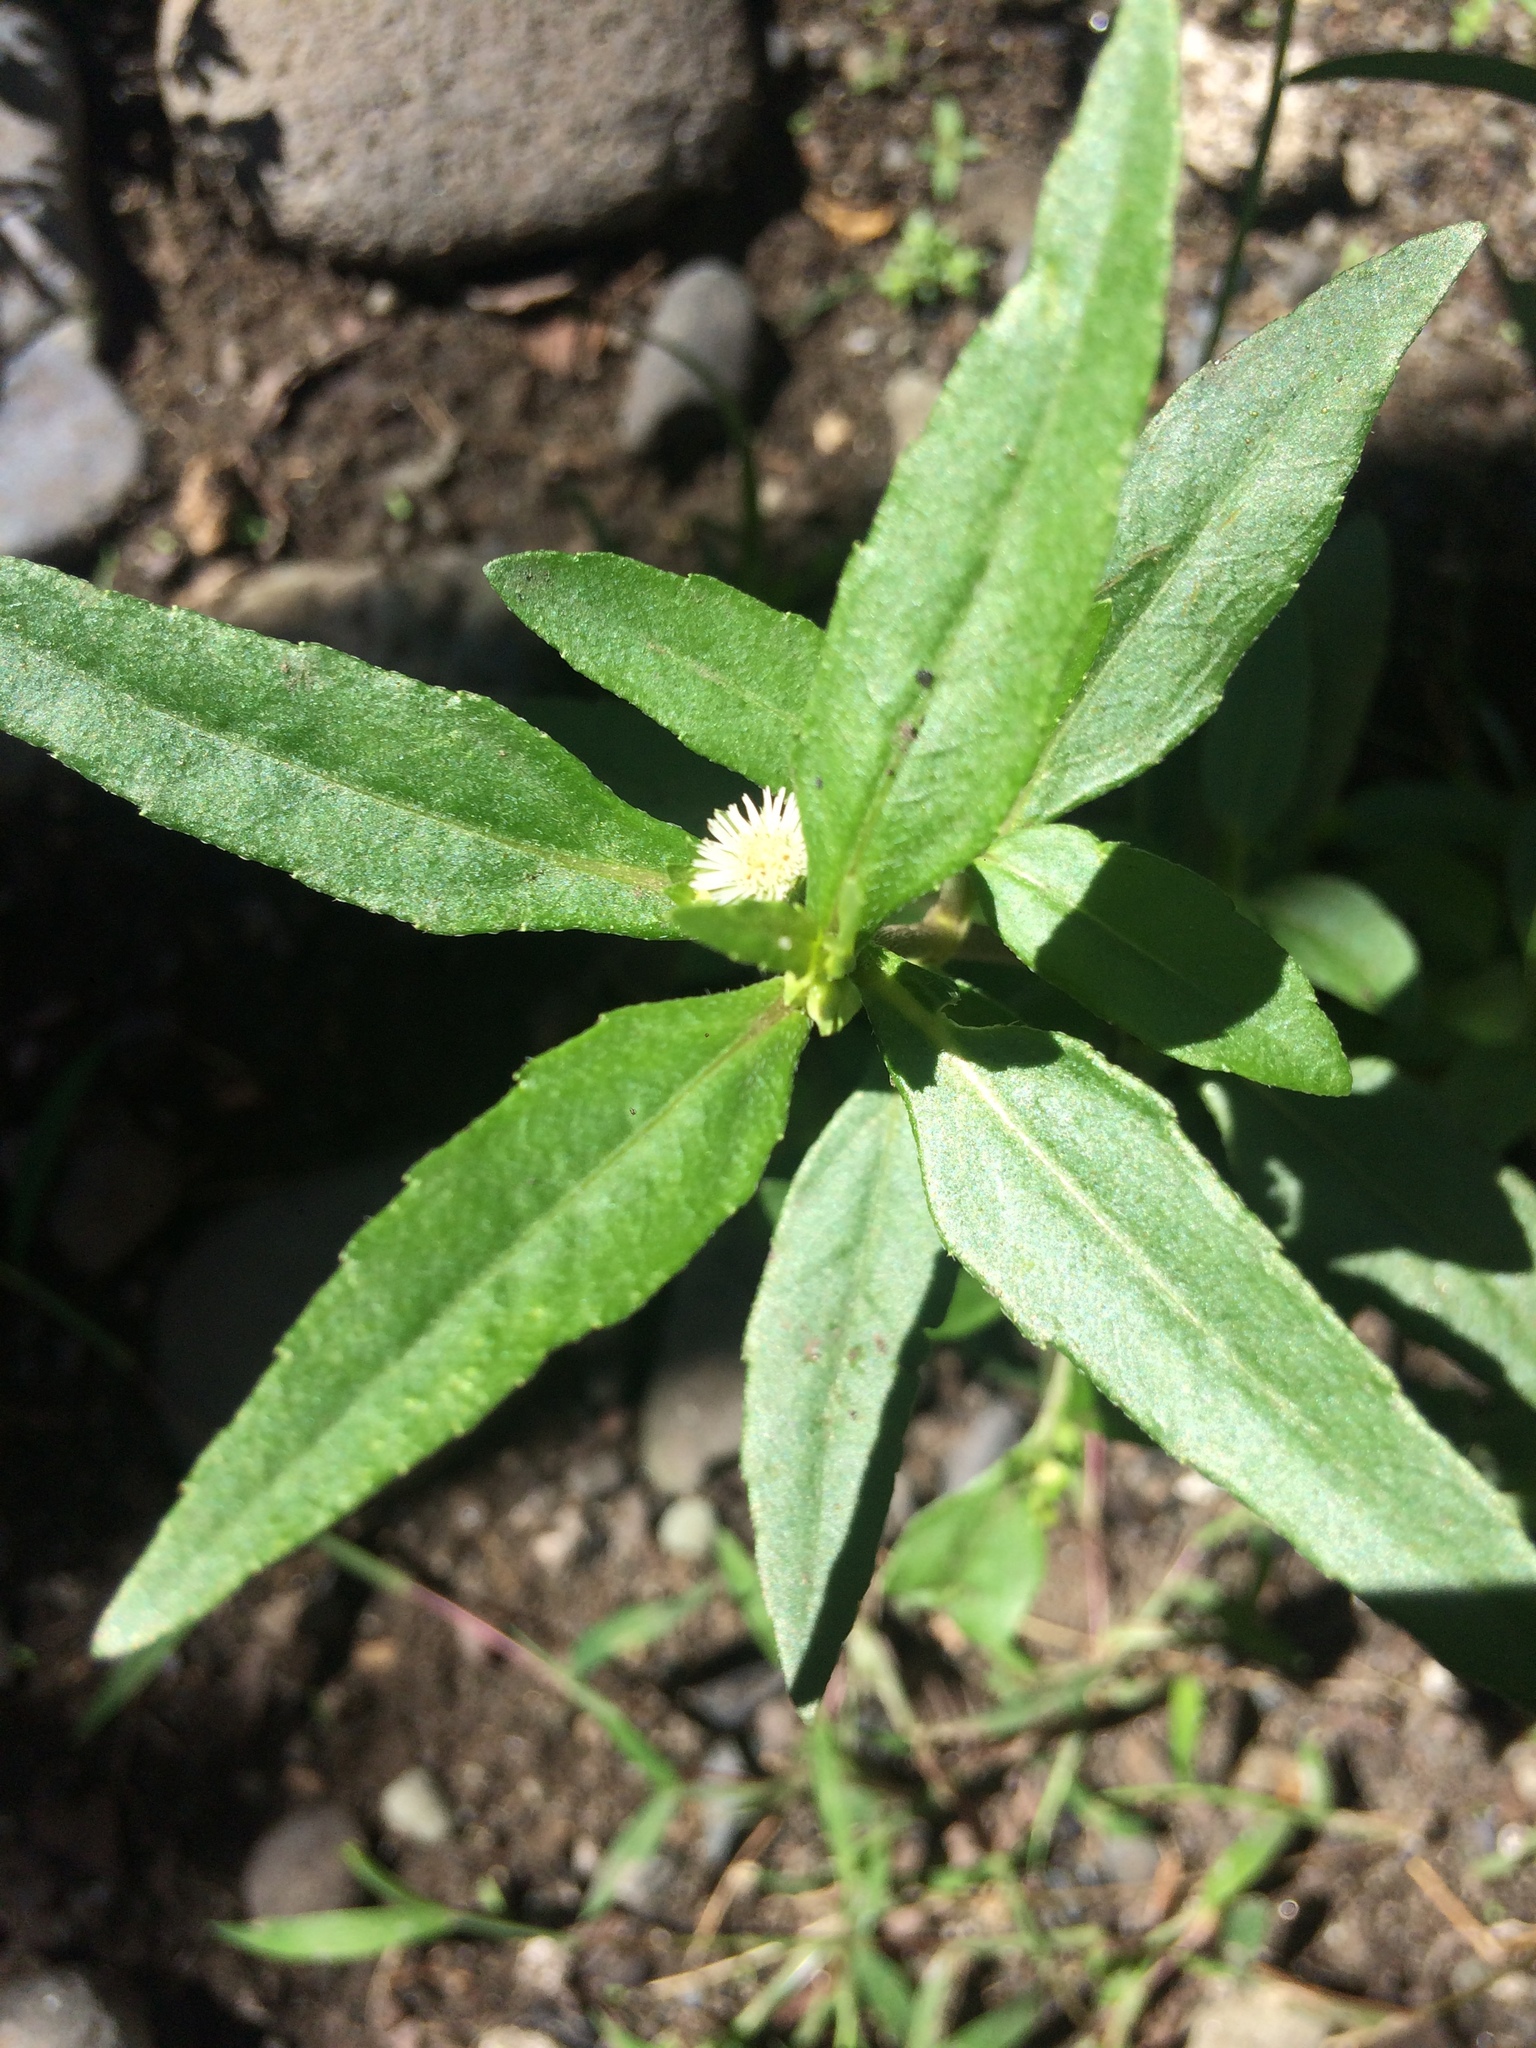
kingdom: Plantae
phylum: Tracheophyta
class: Magnoliopsida
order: Asterales
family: Asteraceae
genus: Eclipta
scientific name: Eclipta prostrata
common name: False daisy
